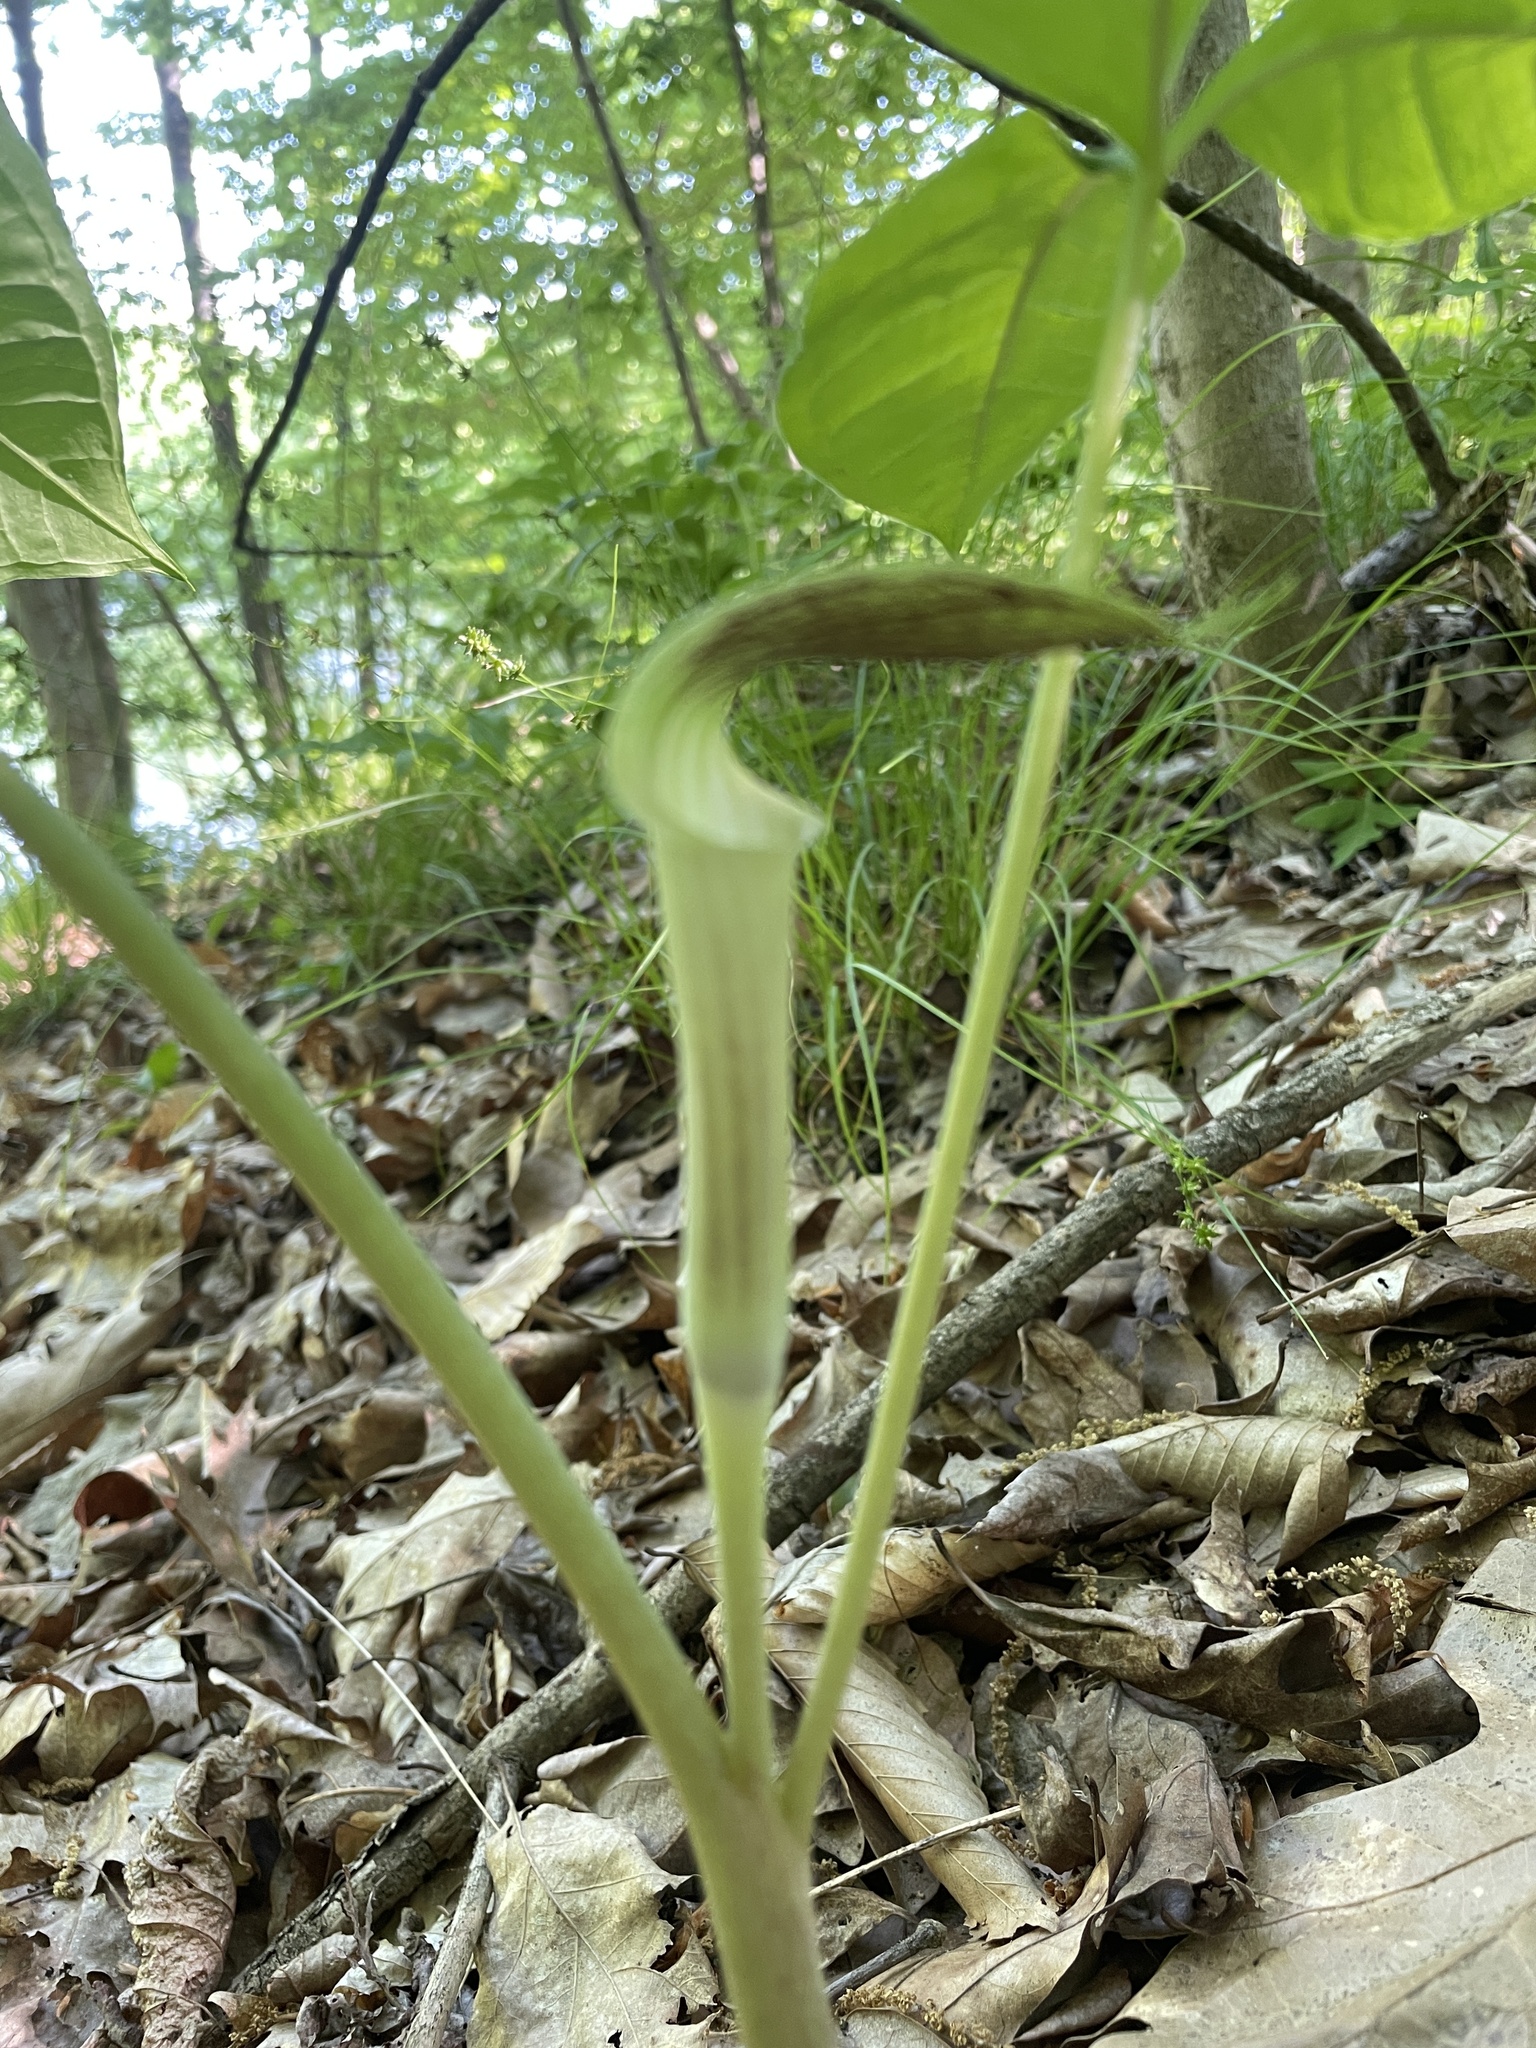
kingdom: Plantae
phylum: Tracheophyta
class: Liliopsida
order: Alismatales
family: Araceae
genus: Arisaema
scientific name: Arisaema triphyllum
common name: Jack-in-the-pulpit
